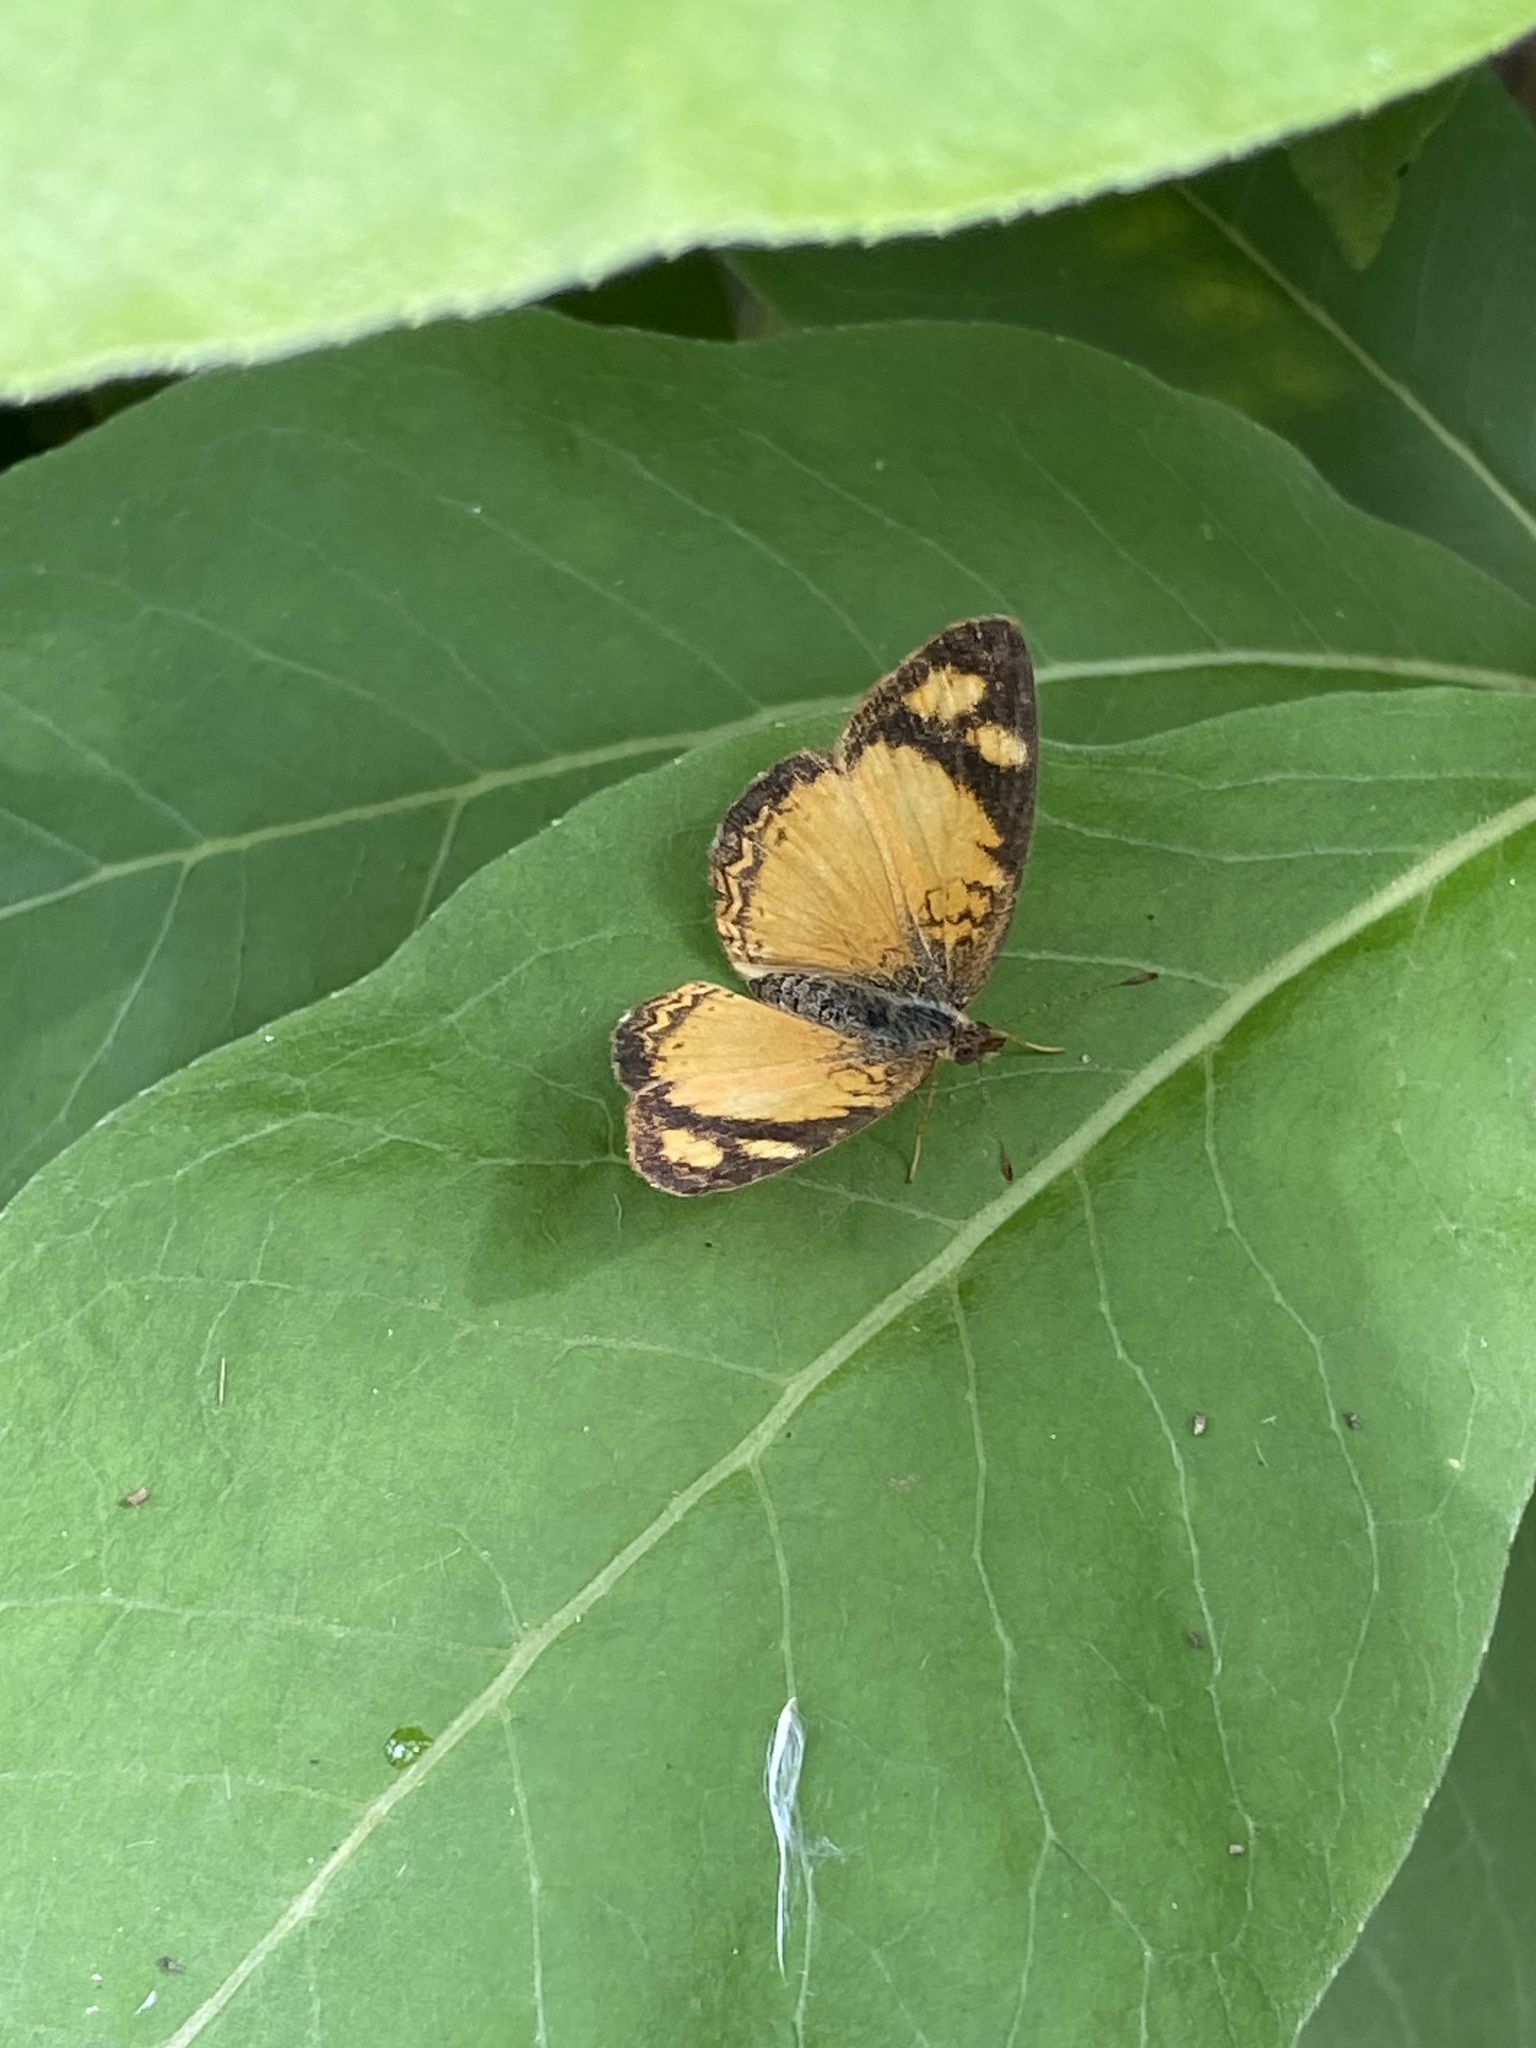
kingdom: Animalia
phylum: Arthropoda
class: Insecta
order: Lepidoptera
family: Nymphalidae
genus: Tegosa
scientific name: Tegosa claudina
